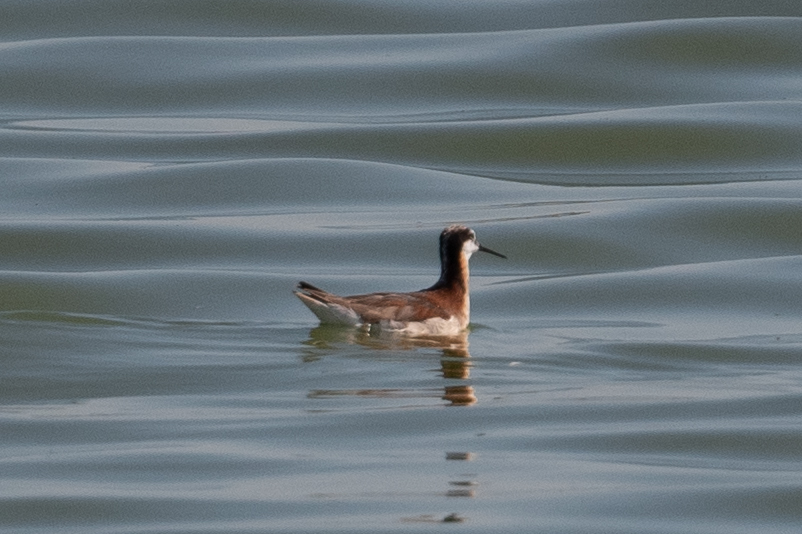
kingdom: Animalia
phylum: Chordata
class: Aves
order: Charadriiformes
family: Scolopacidae
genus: Phalaropus
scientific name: Phalaropus tricolor
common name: Wilson's phalarope
